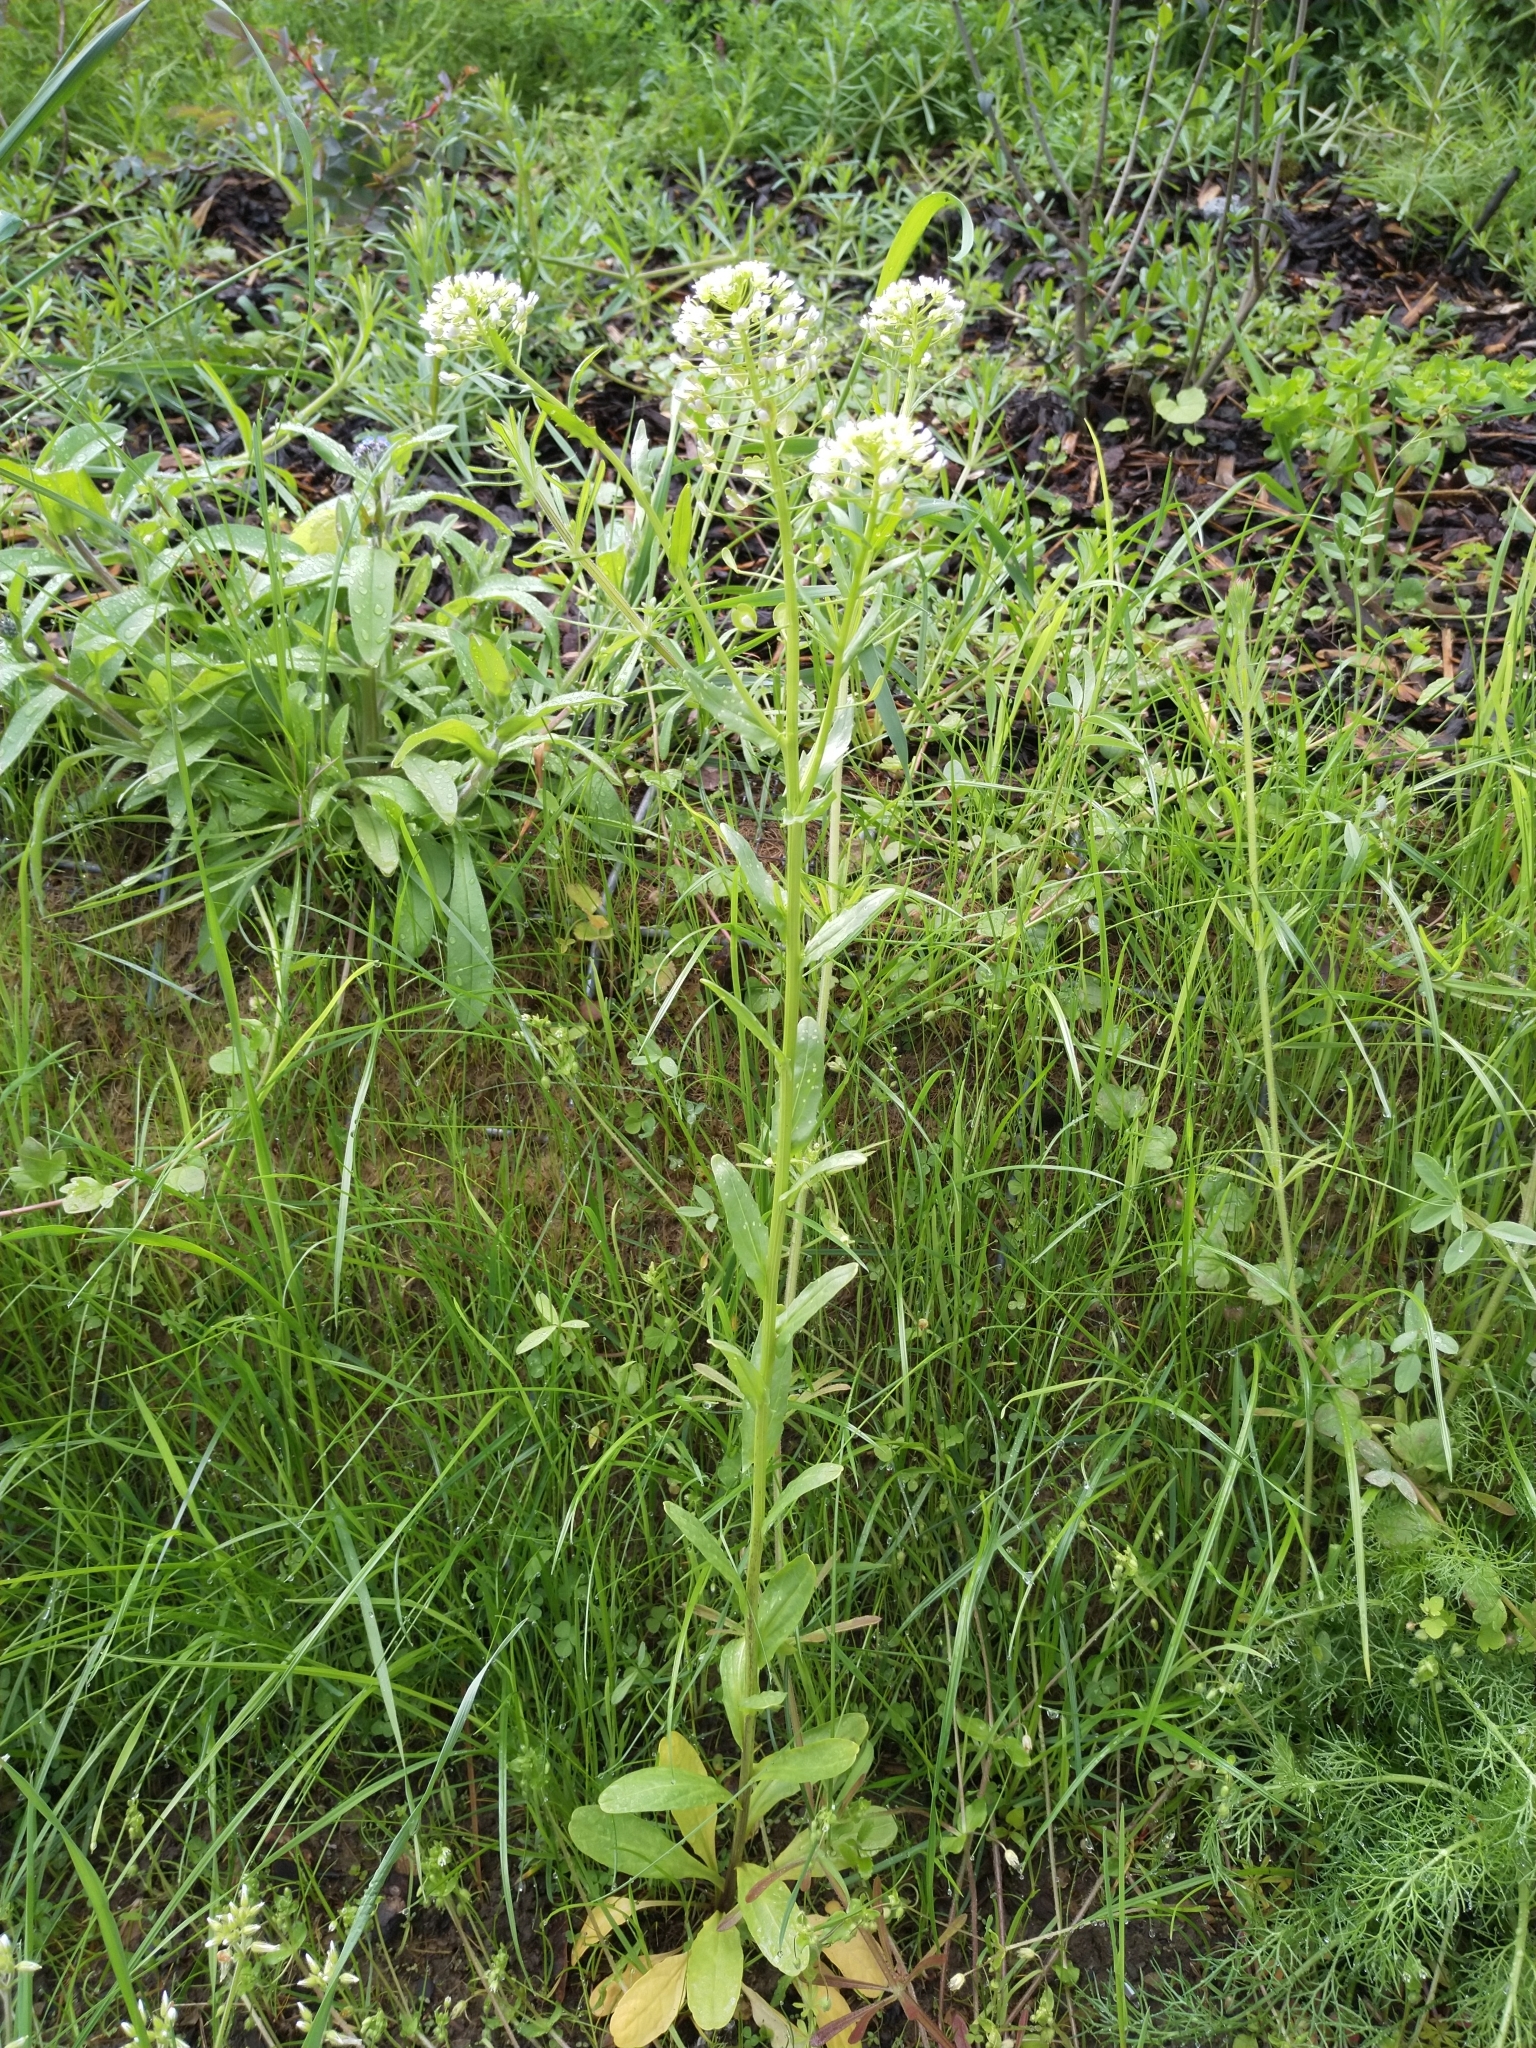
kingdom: Plantae
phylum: Tracheophyta
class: Magnoliopsida
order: Brassicales
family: Brassicaceae
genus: Thlaspi
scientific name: Thlaspi arvense
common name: Field pennycress
